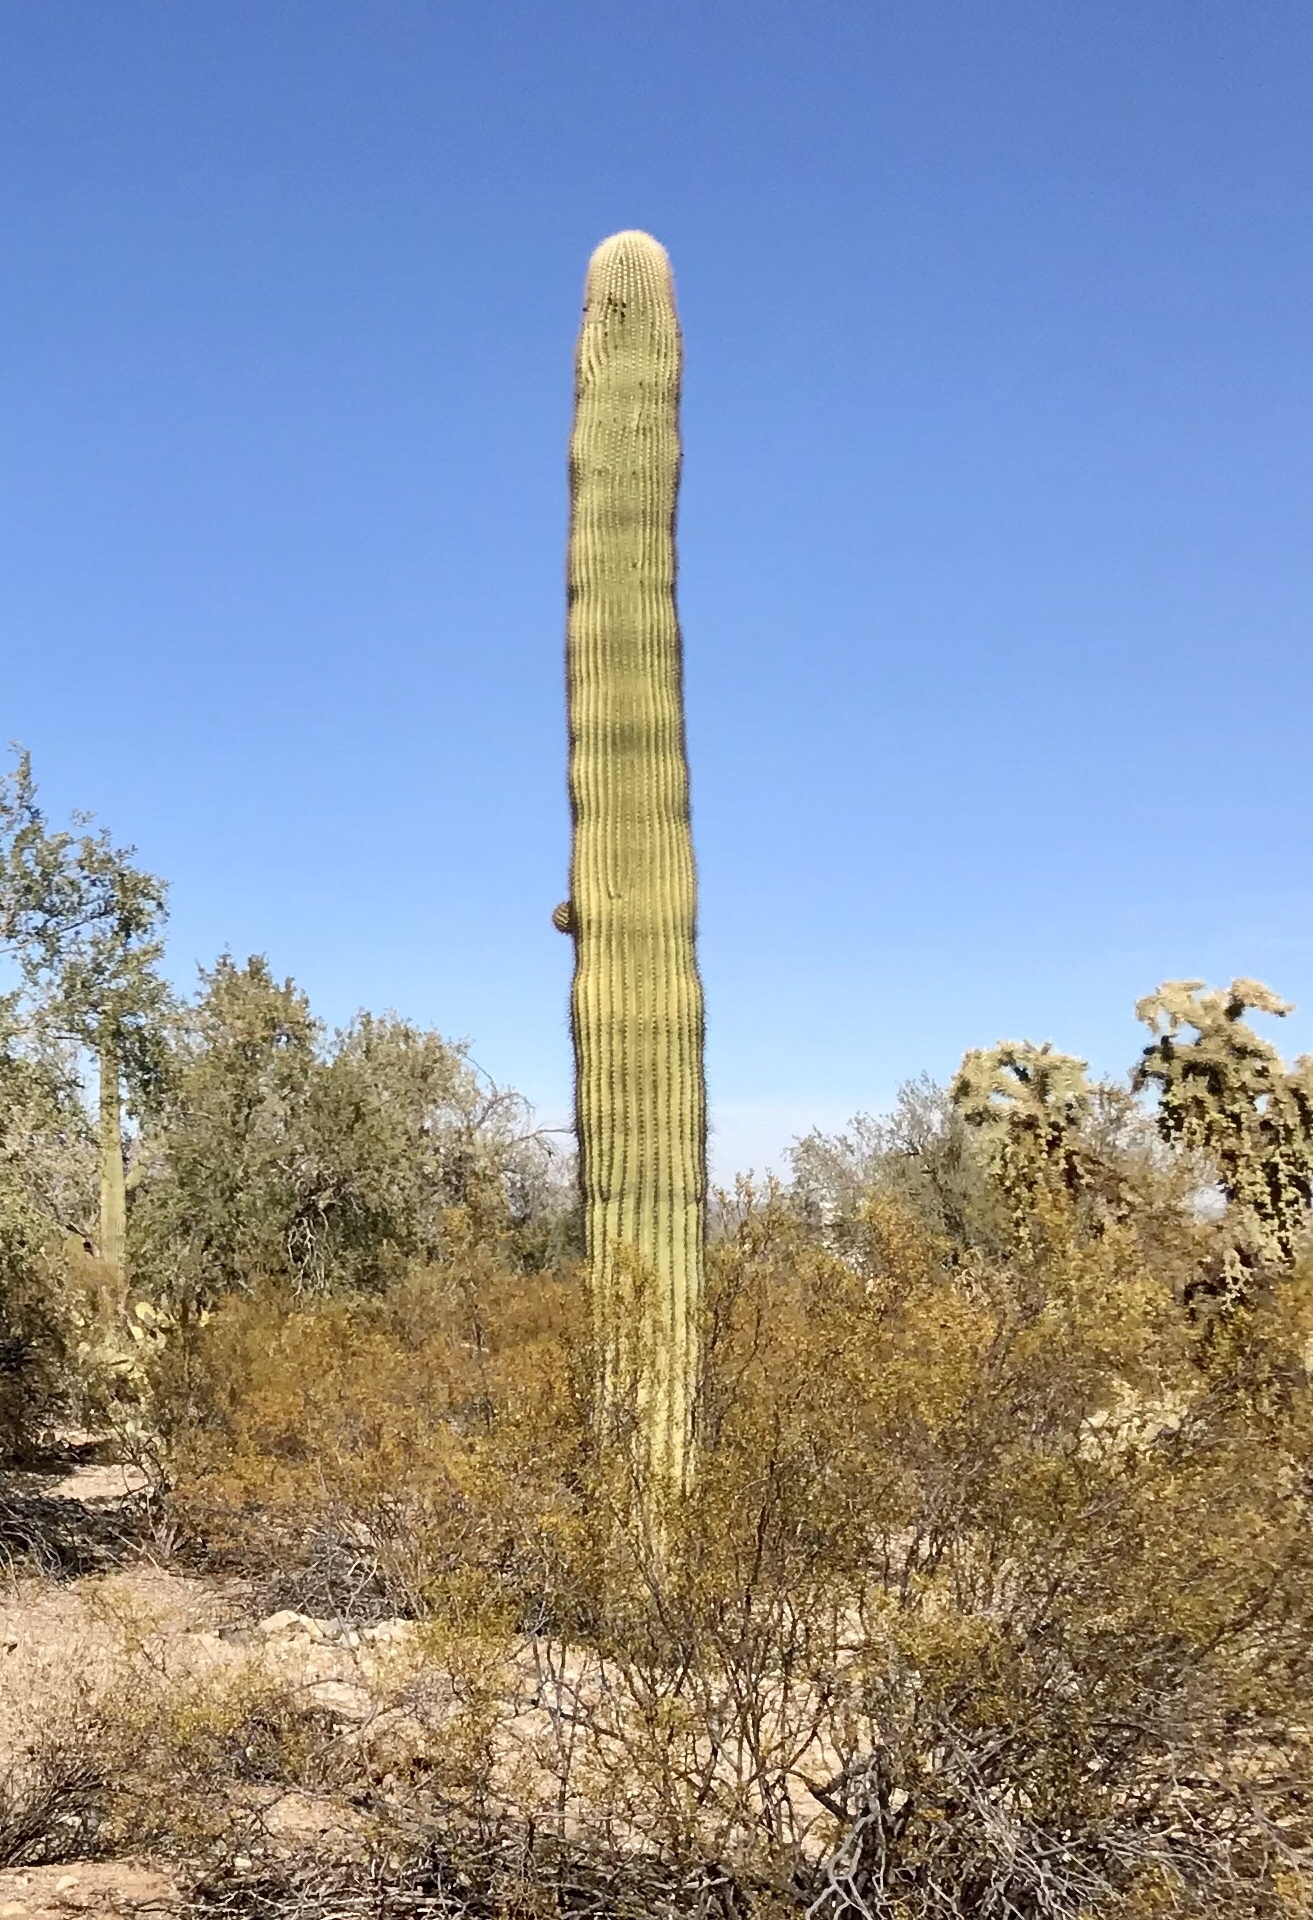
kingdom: Plantae
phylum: Tracheophyta
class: Magnoliopsida
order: Caryophyllales
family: Cactaceae
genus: Carnegiea
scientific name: Carnegiea gigantea
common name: Saguaro
